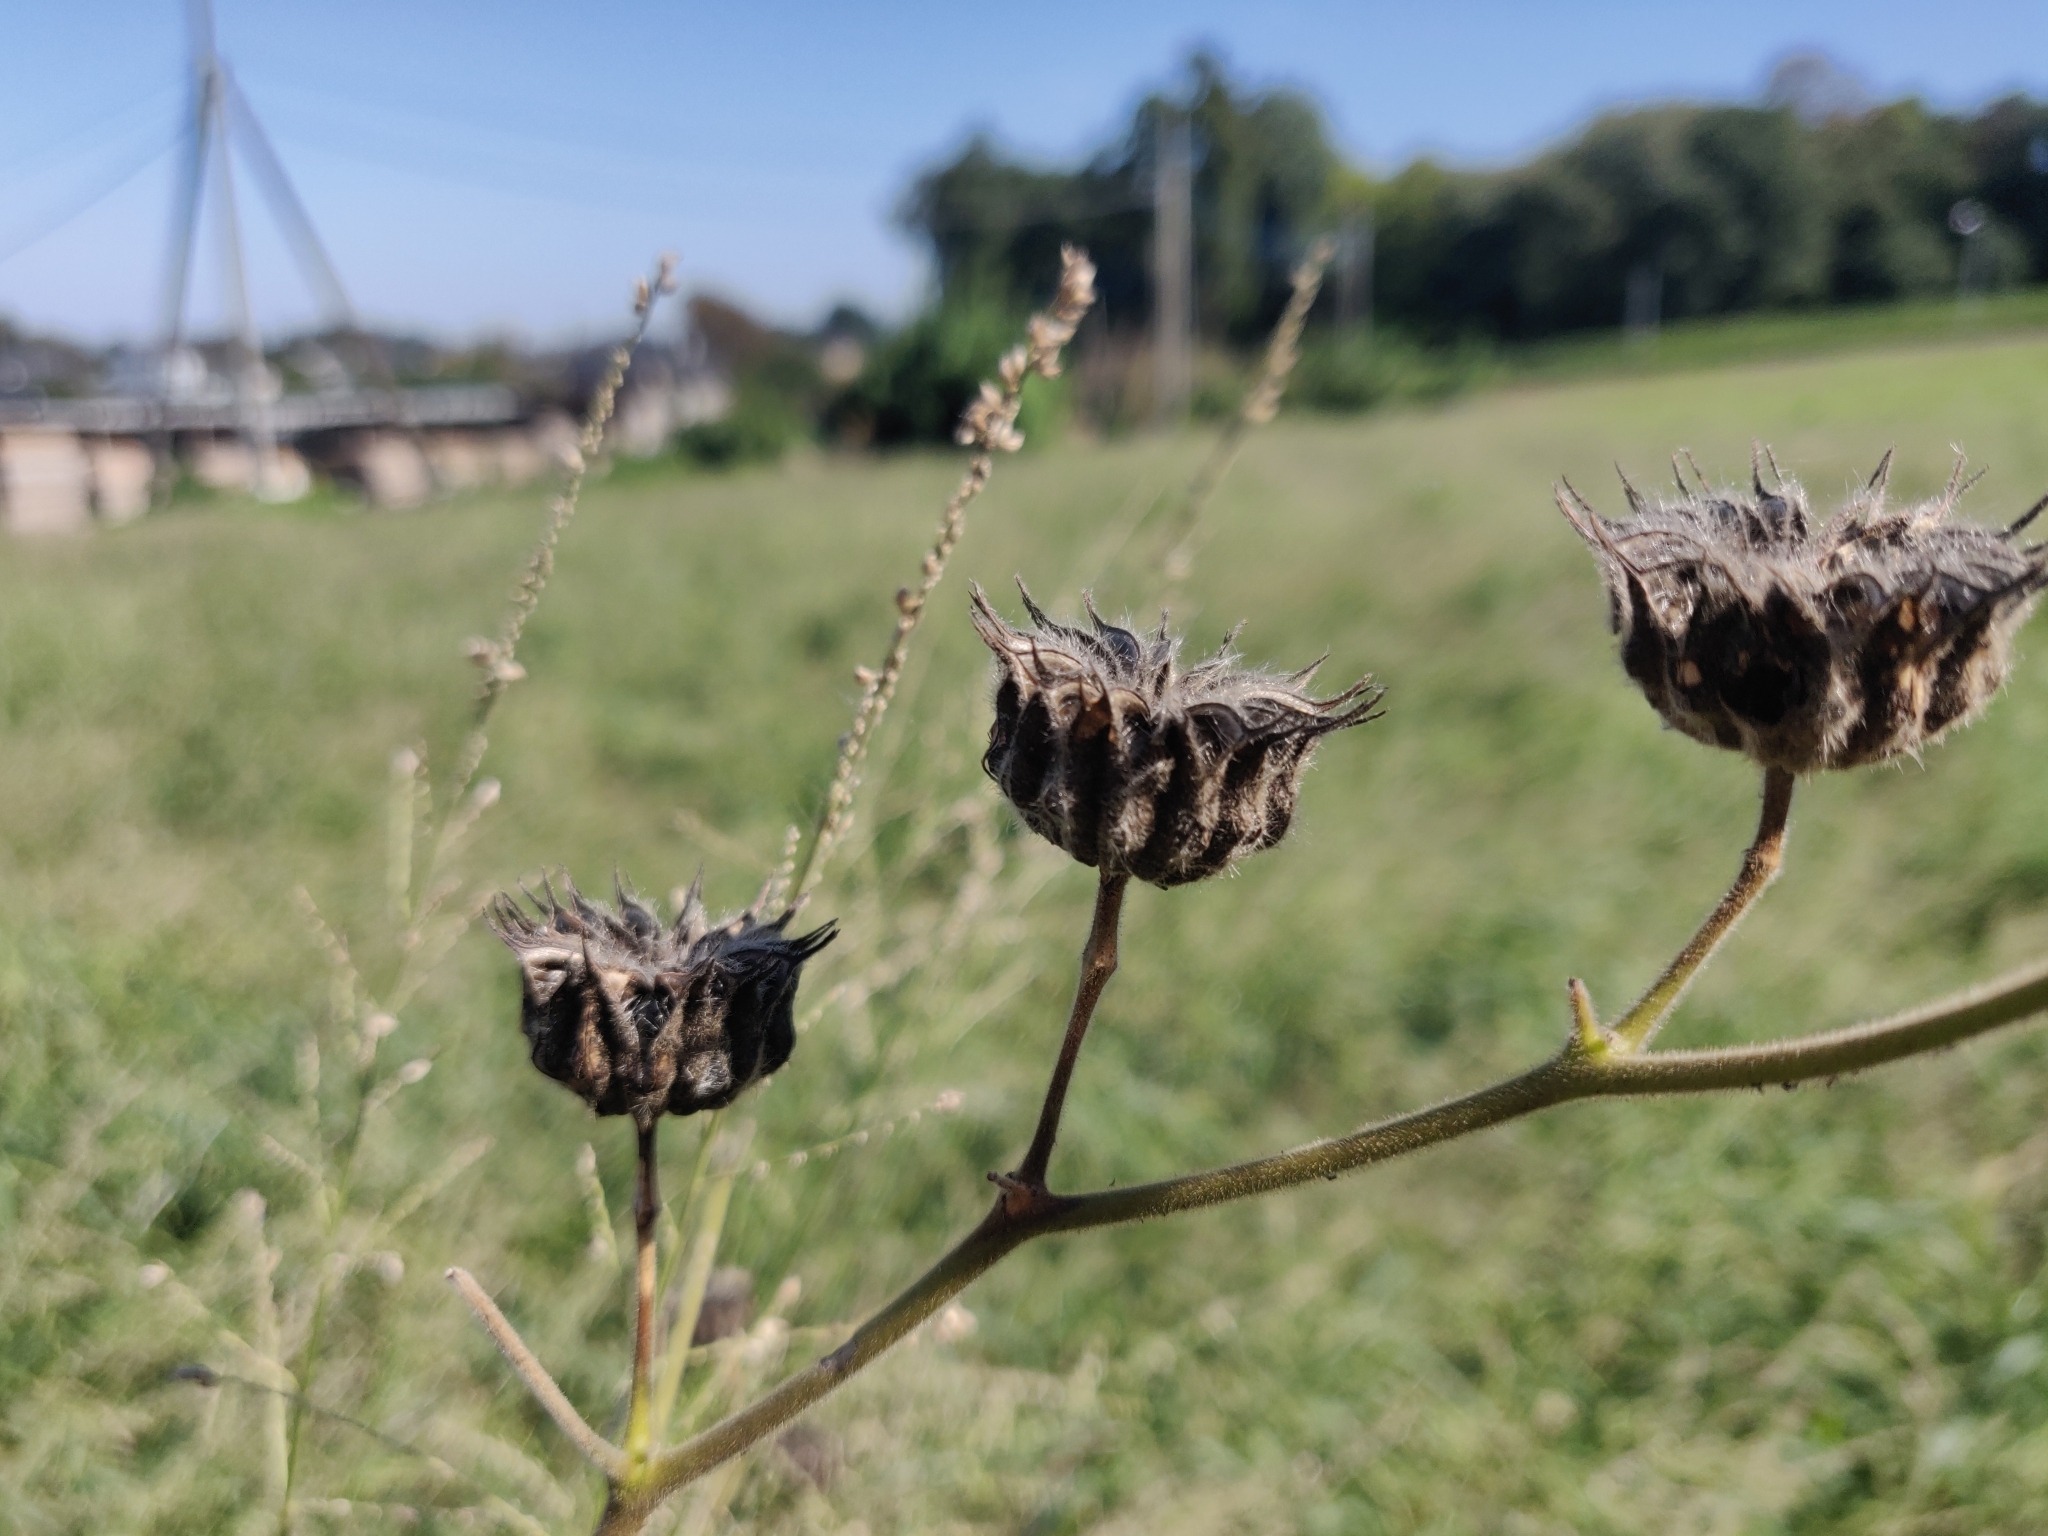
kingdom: Plantae
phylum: Tracheophyta
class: Magnoliopsida
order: Malvales
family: Malvaceae
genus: Abutilon
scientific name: Abutilon theophrasti
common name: Velvetleaf
